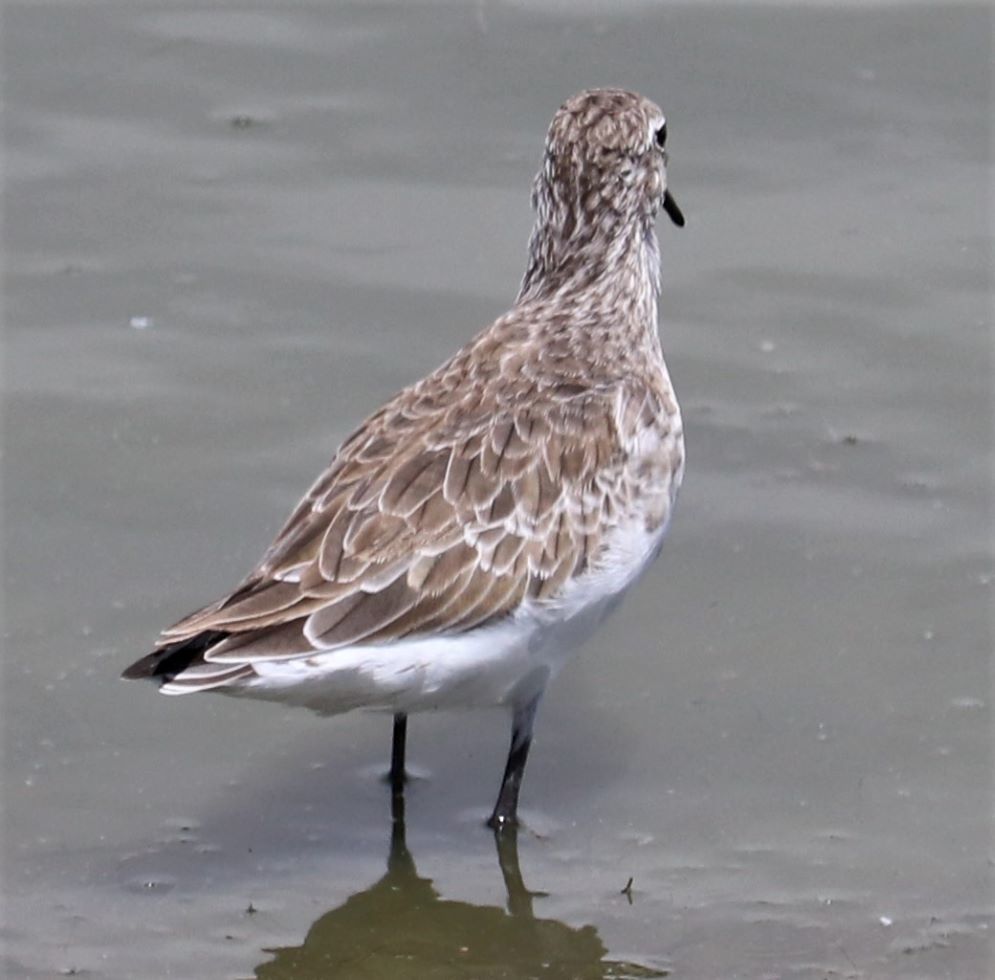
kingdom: Animalia
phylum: Chordata
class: Aves
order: Charadriiformes
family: Scolopacidae
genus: Calidris
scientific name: Calidris ferruginea
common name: Curlew sandpiper
